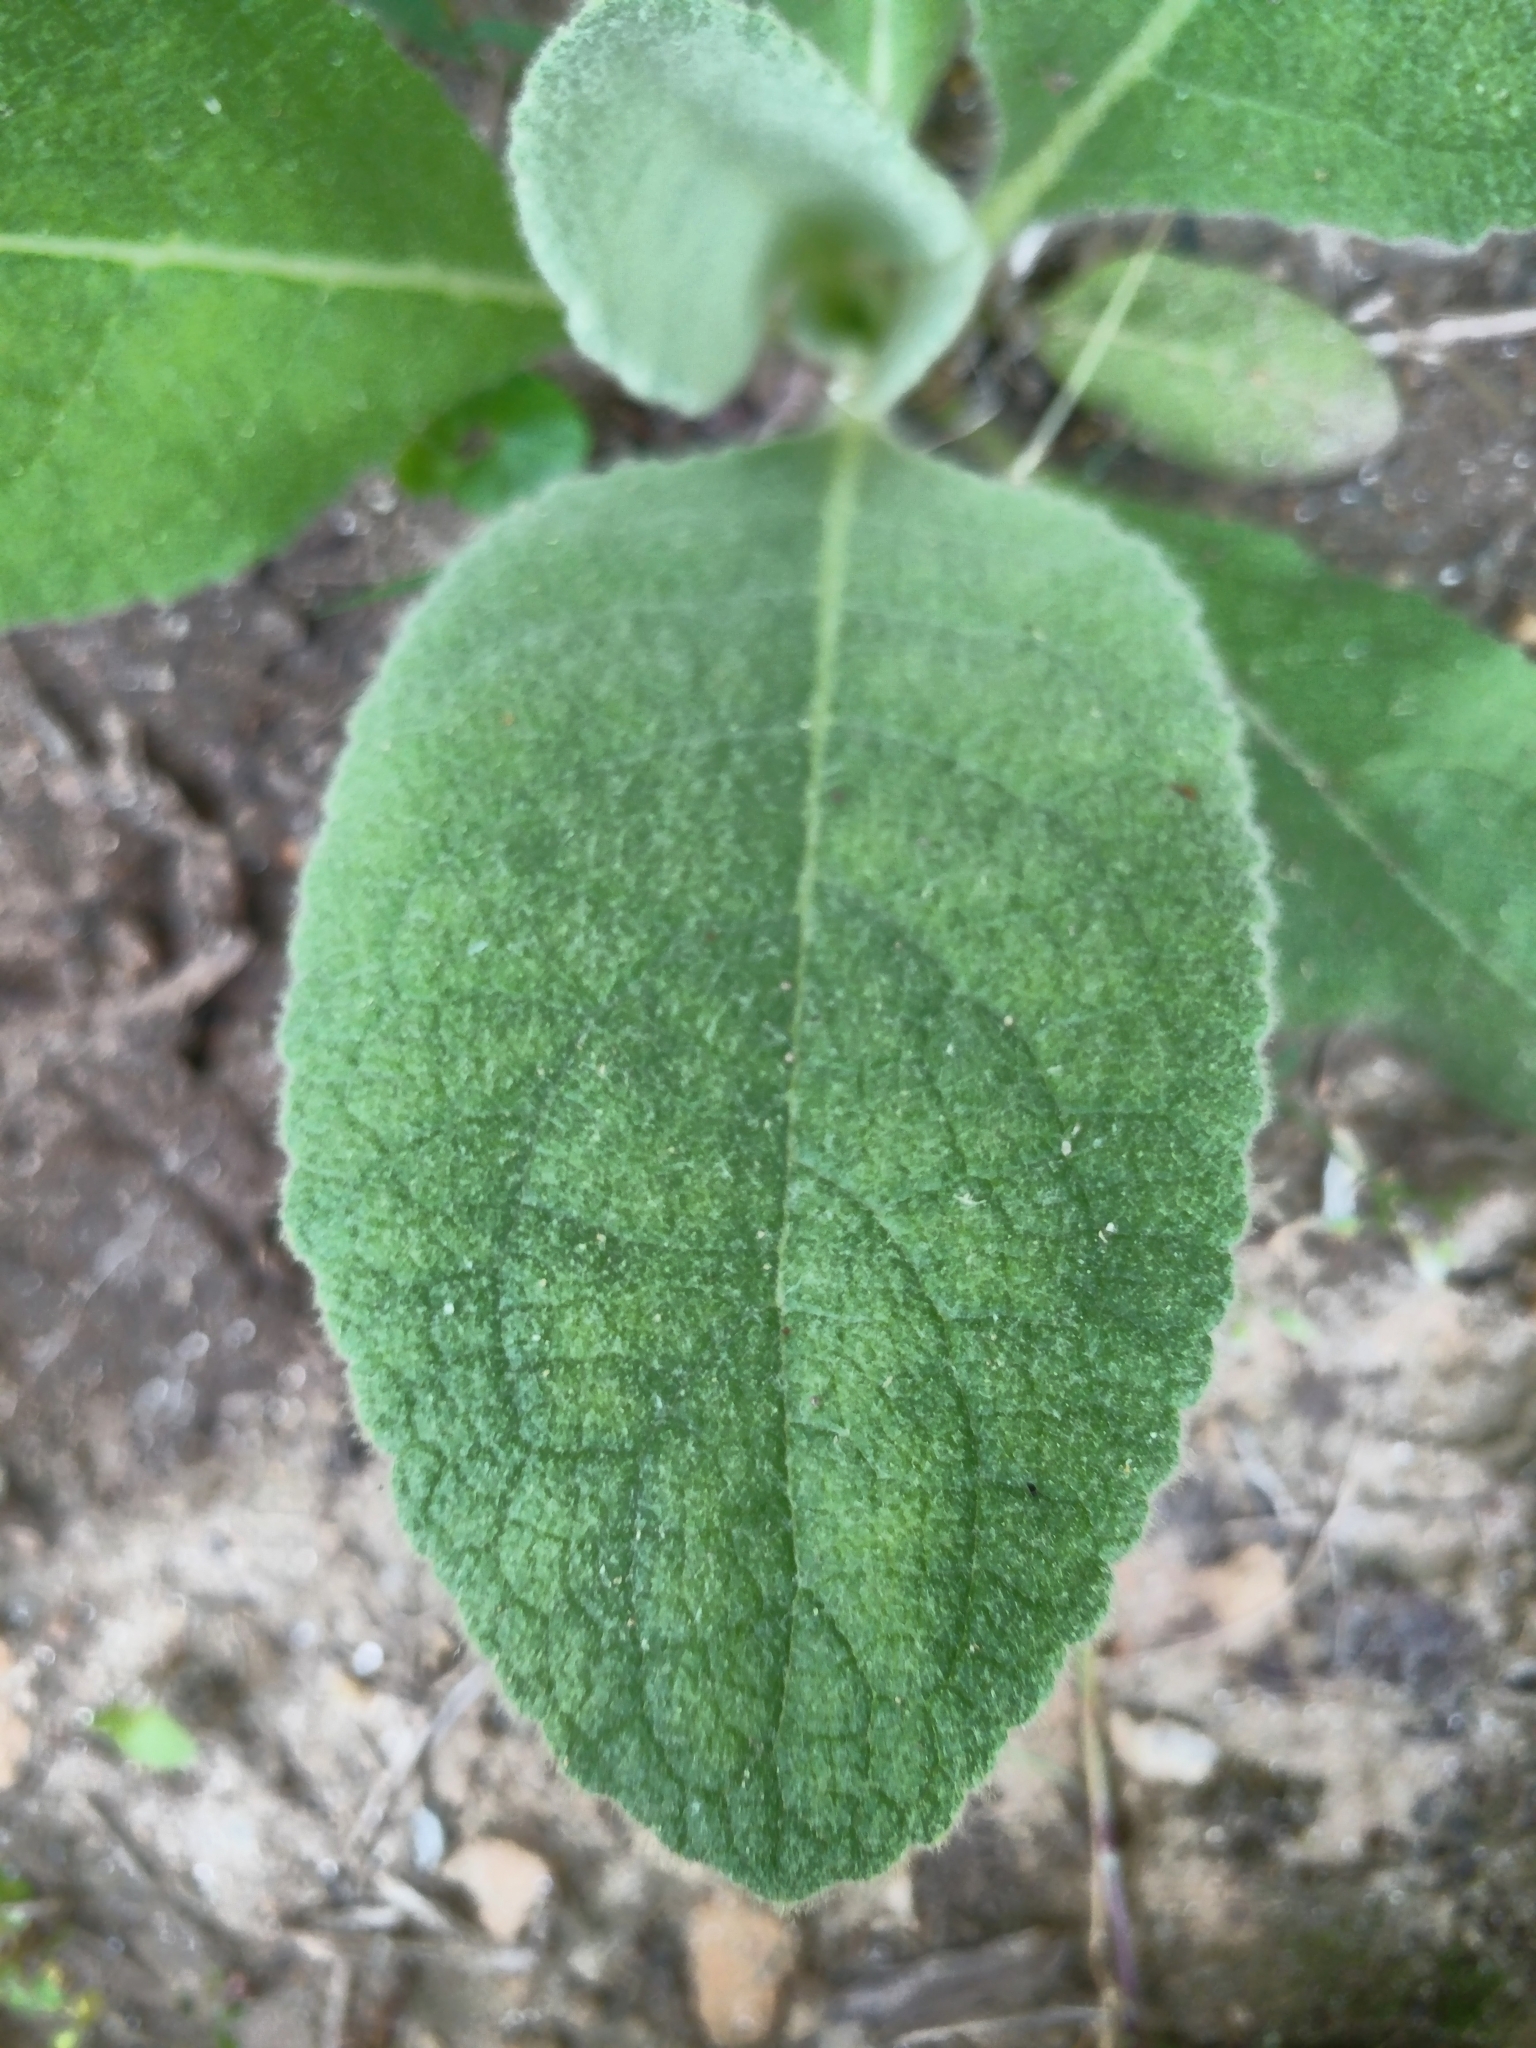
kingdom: Plantae
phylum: Tracheophyta
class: Magnoliopsida
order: Lamiales
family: Scrophulariaceae
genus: Verbascum
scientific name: Verbascum thapsus
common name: Common mullein
